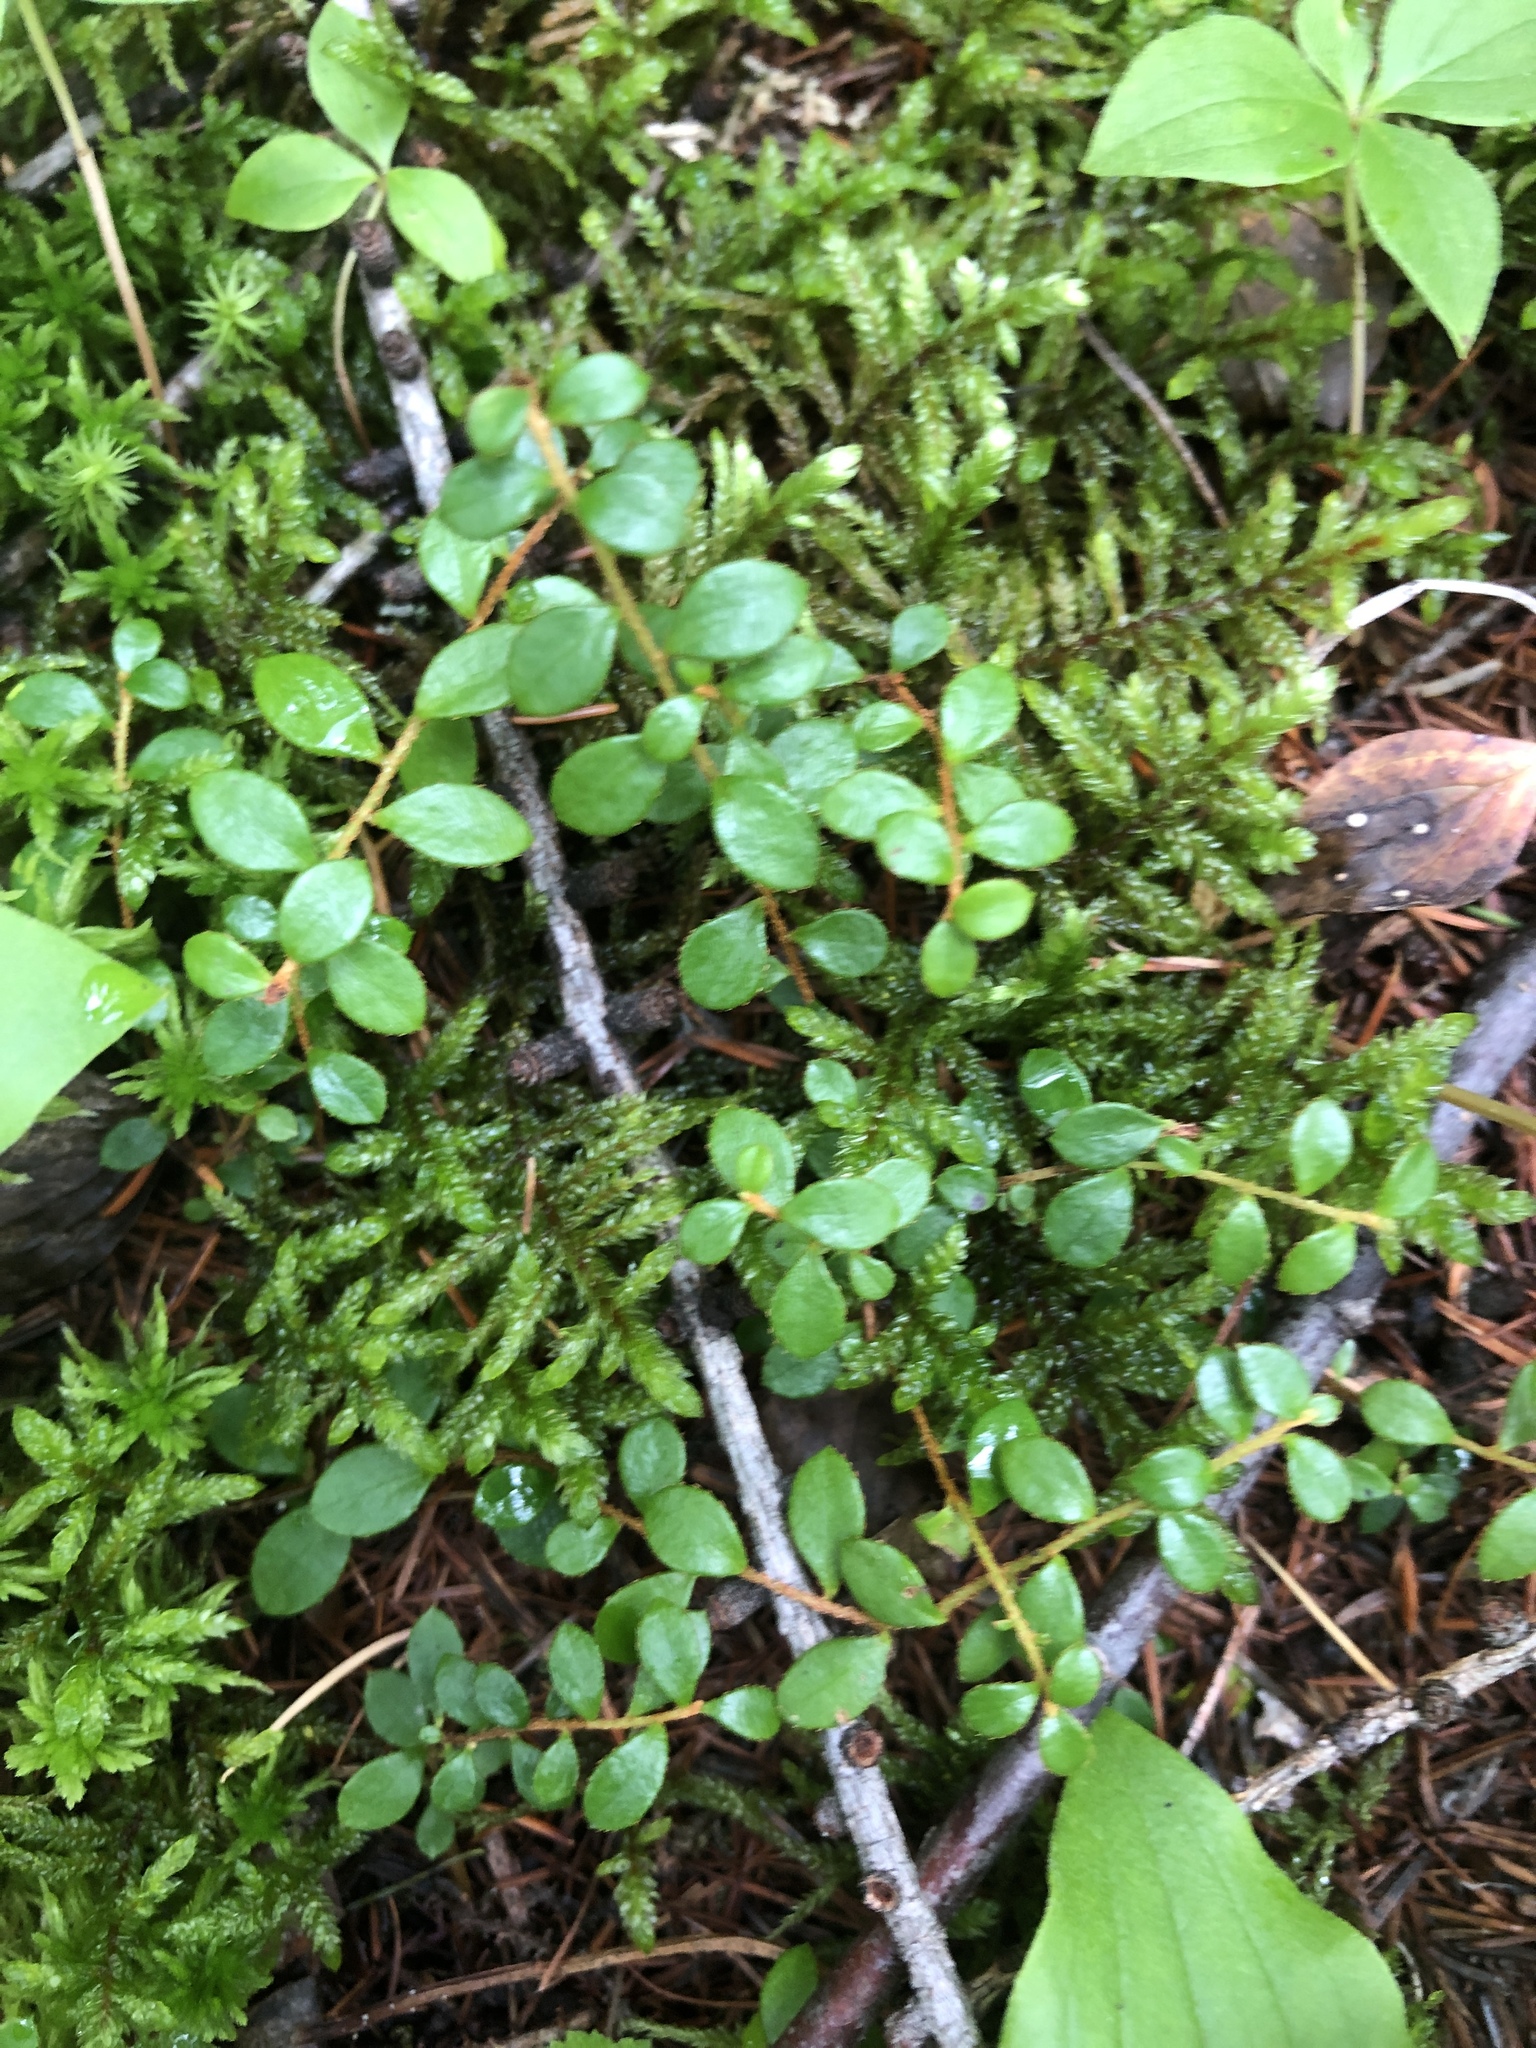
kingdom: Plantae
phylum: Tracheophyta
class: Magnoliopsida
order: Ericales
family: Ericaceae
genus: Gaultheria
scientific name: Gaultheria hispidula
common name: Cancer wintergreen
